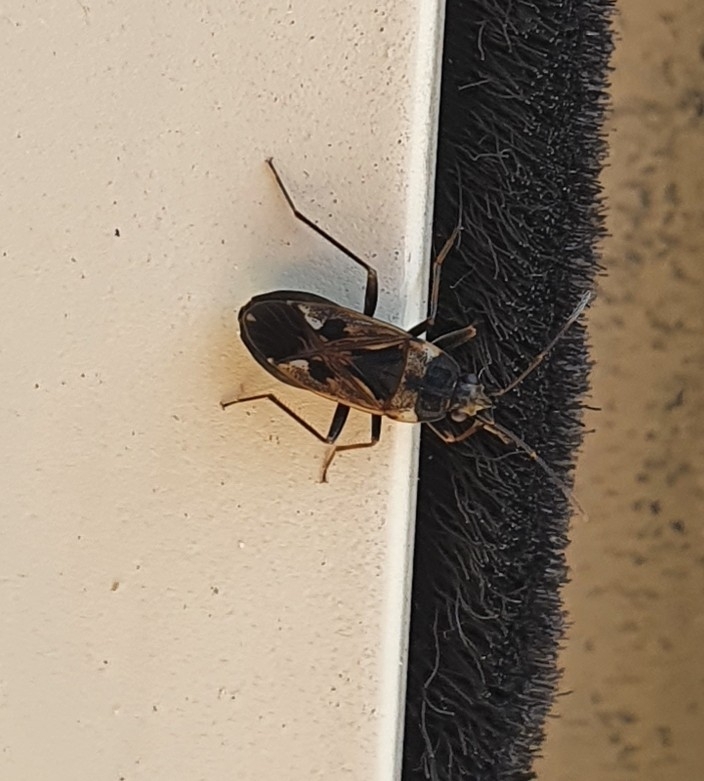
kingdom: Animalia
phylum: Arthropoda
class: Insecta
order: Hemiptera
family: Rhyparochromidae
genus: Rhyparochromus
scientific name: Rhyparochromus vulgaris
